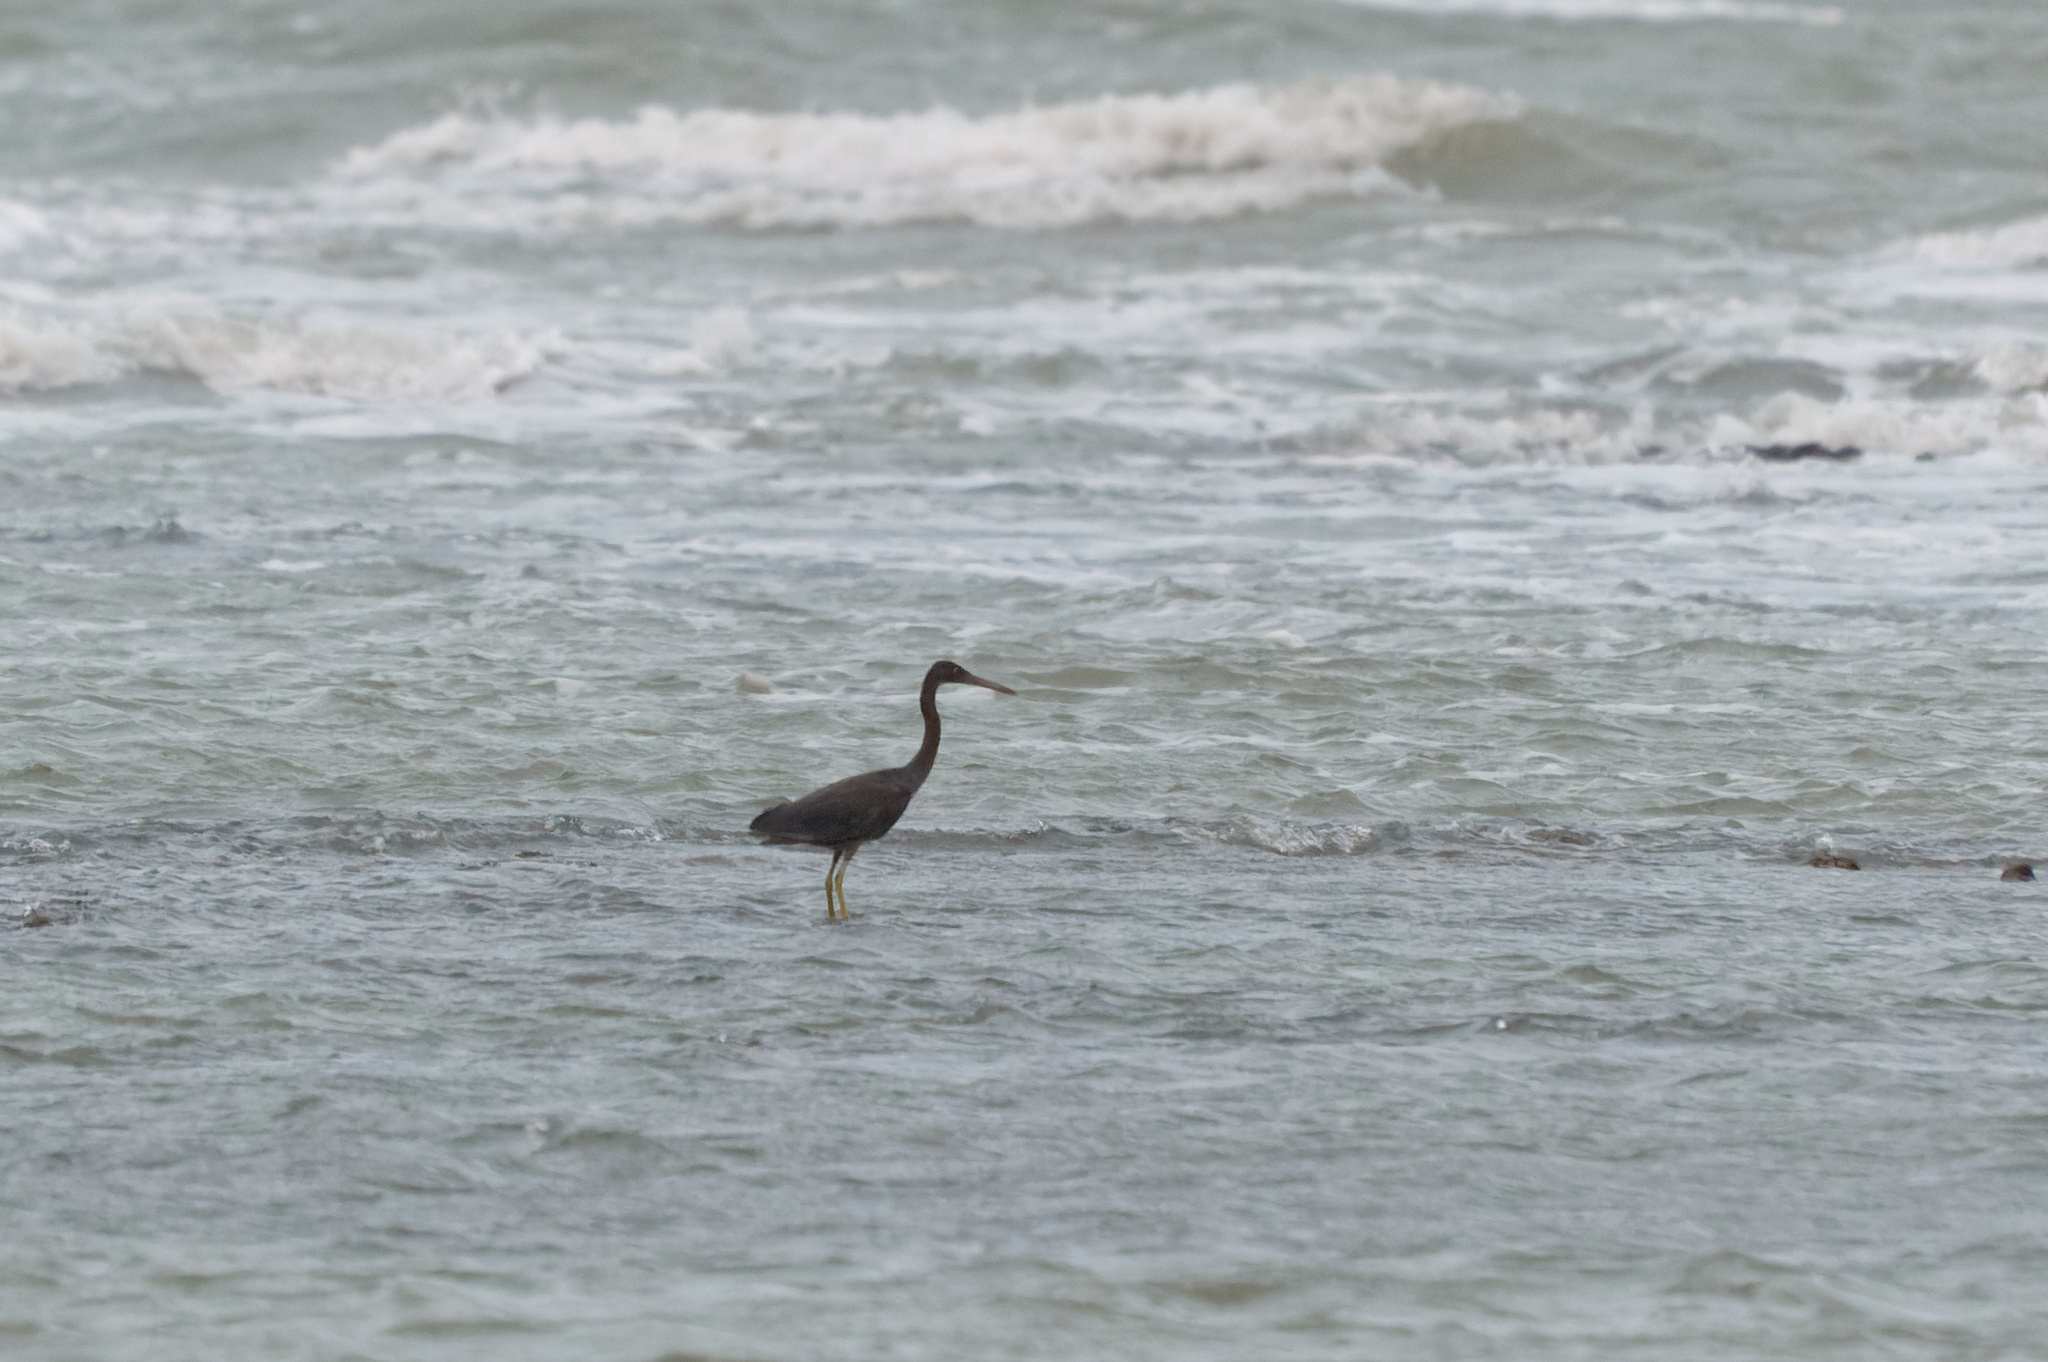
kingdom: Animalia
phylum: Chordata
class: Aves
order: Pelecaniformes
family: Ardeidae
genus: Egretta
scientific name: Egretta sacra
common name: Pacific reef heron
